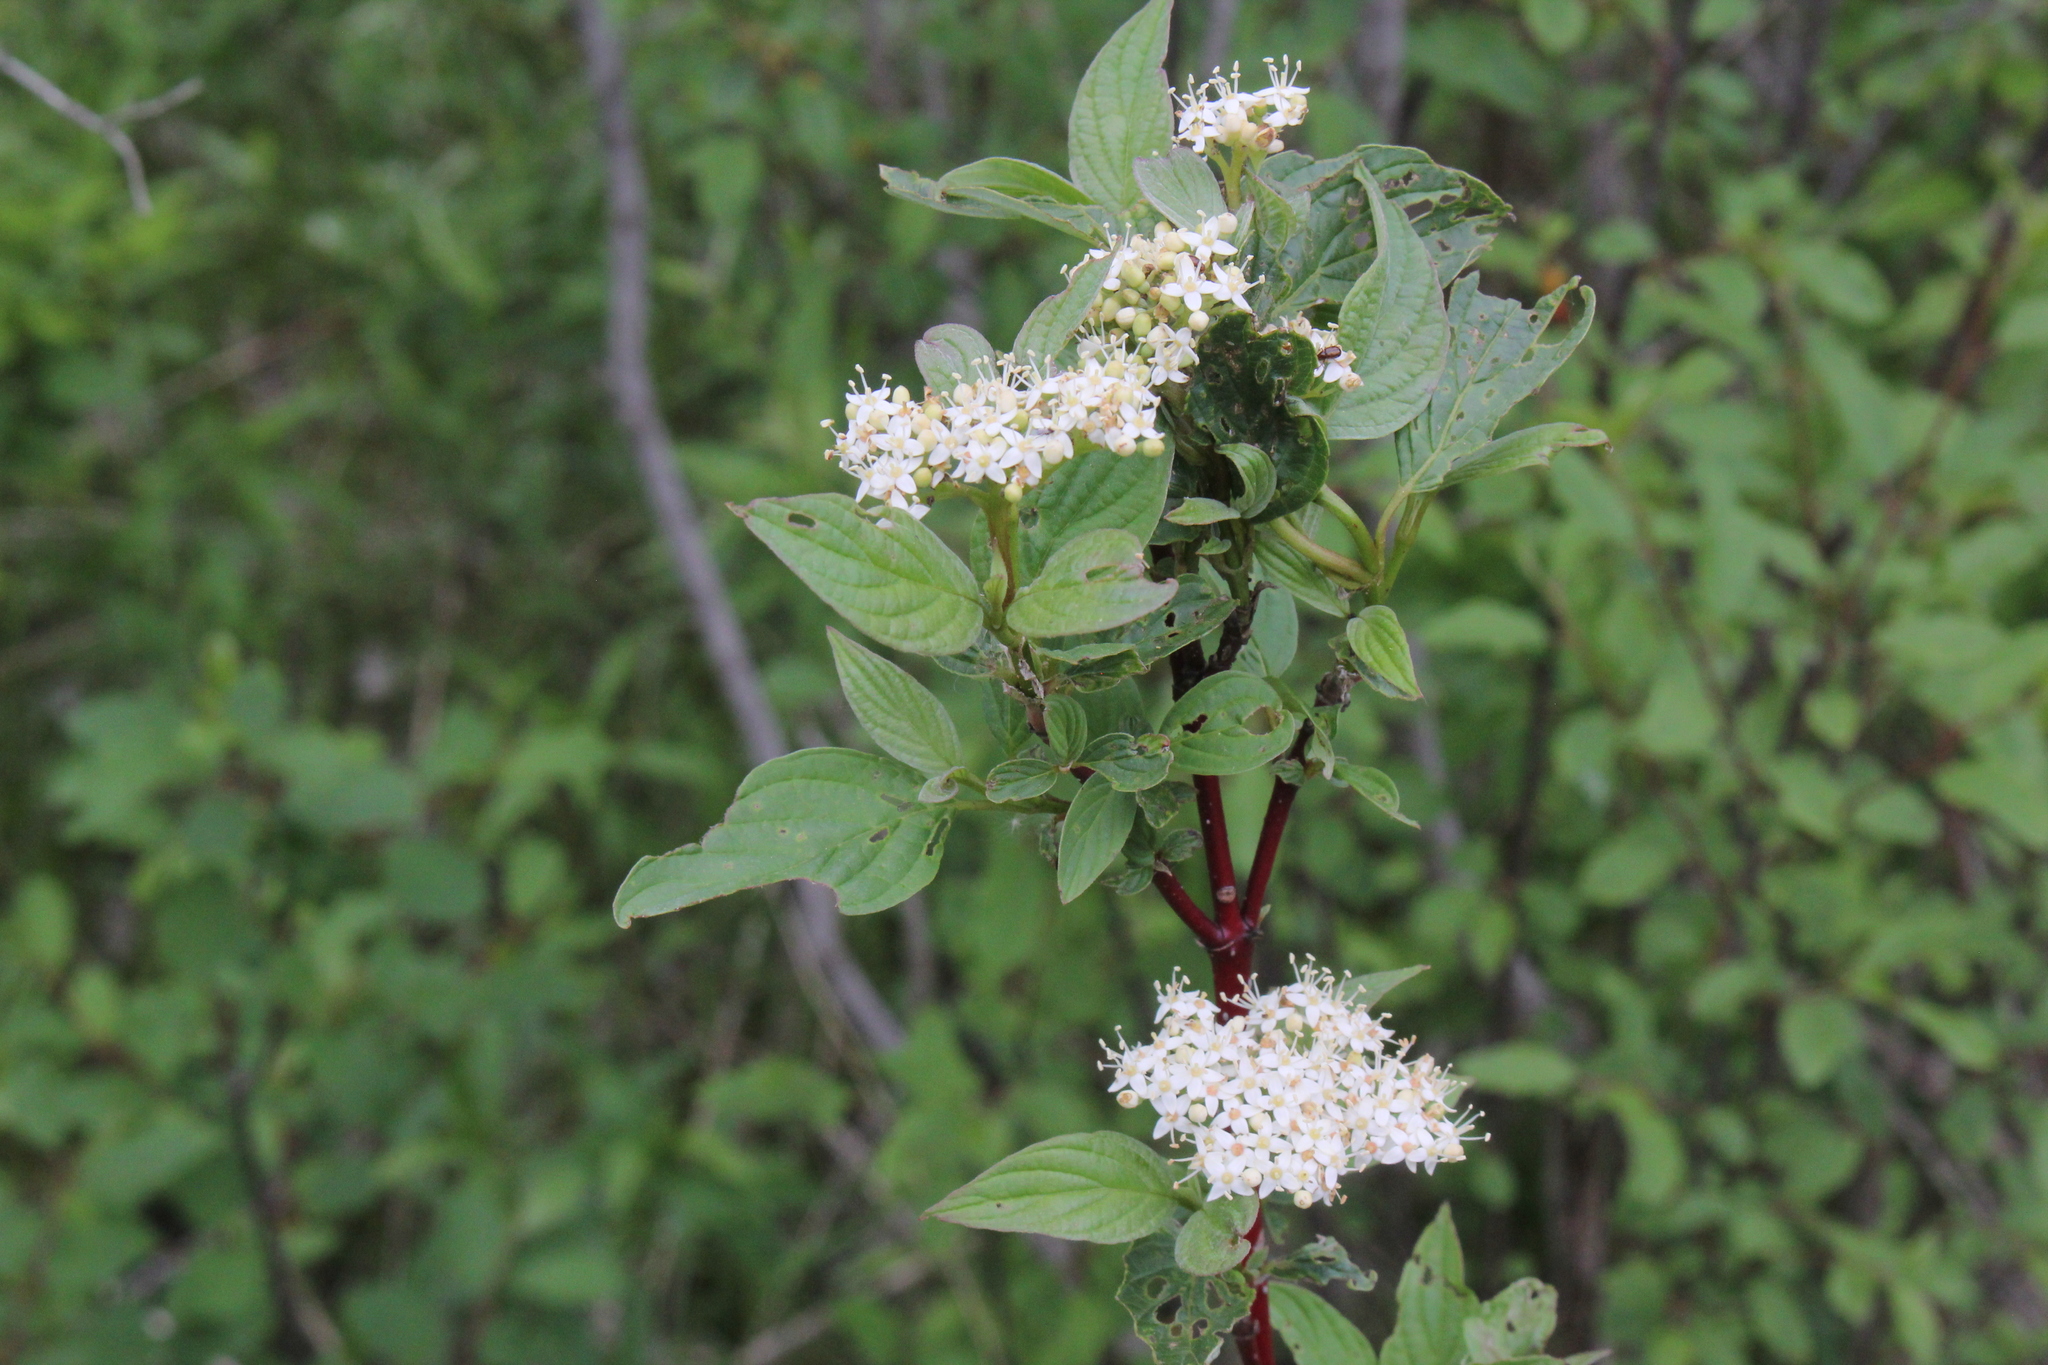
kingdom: Plantae
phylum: Tracheophyta
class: Magnoliopsida
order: Cornales
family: Cornaceae
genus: Cornus
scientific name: Cornus sericea
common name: Red-osier dogwood
